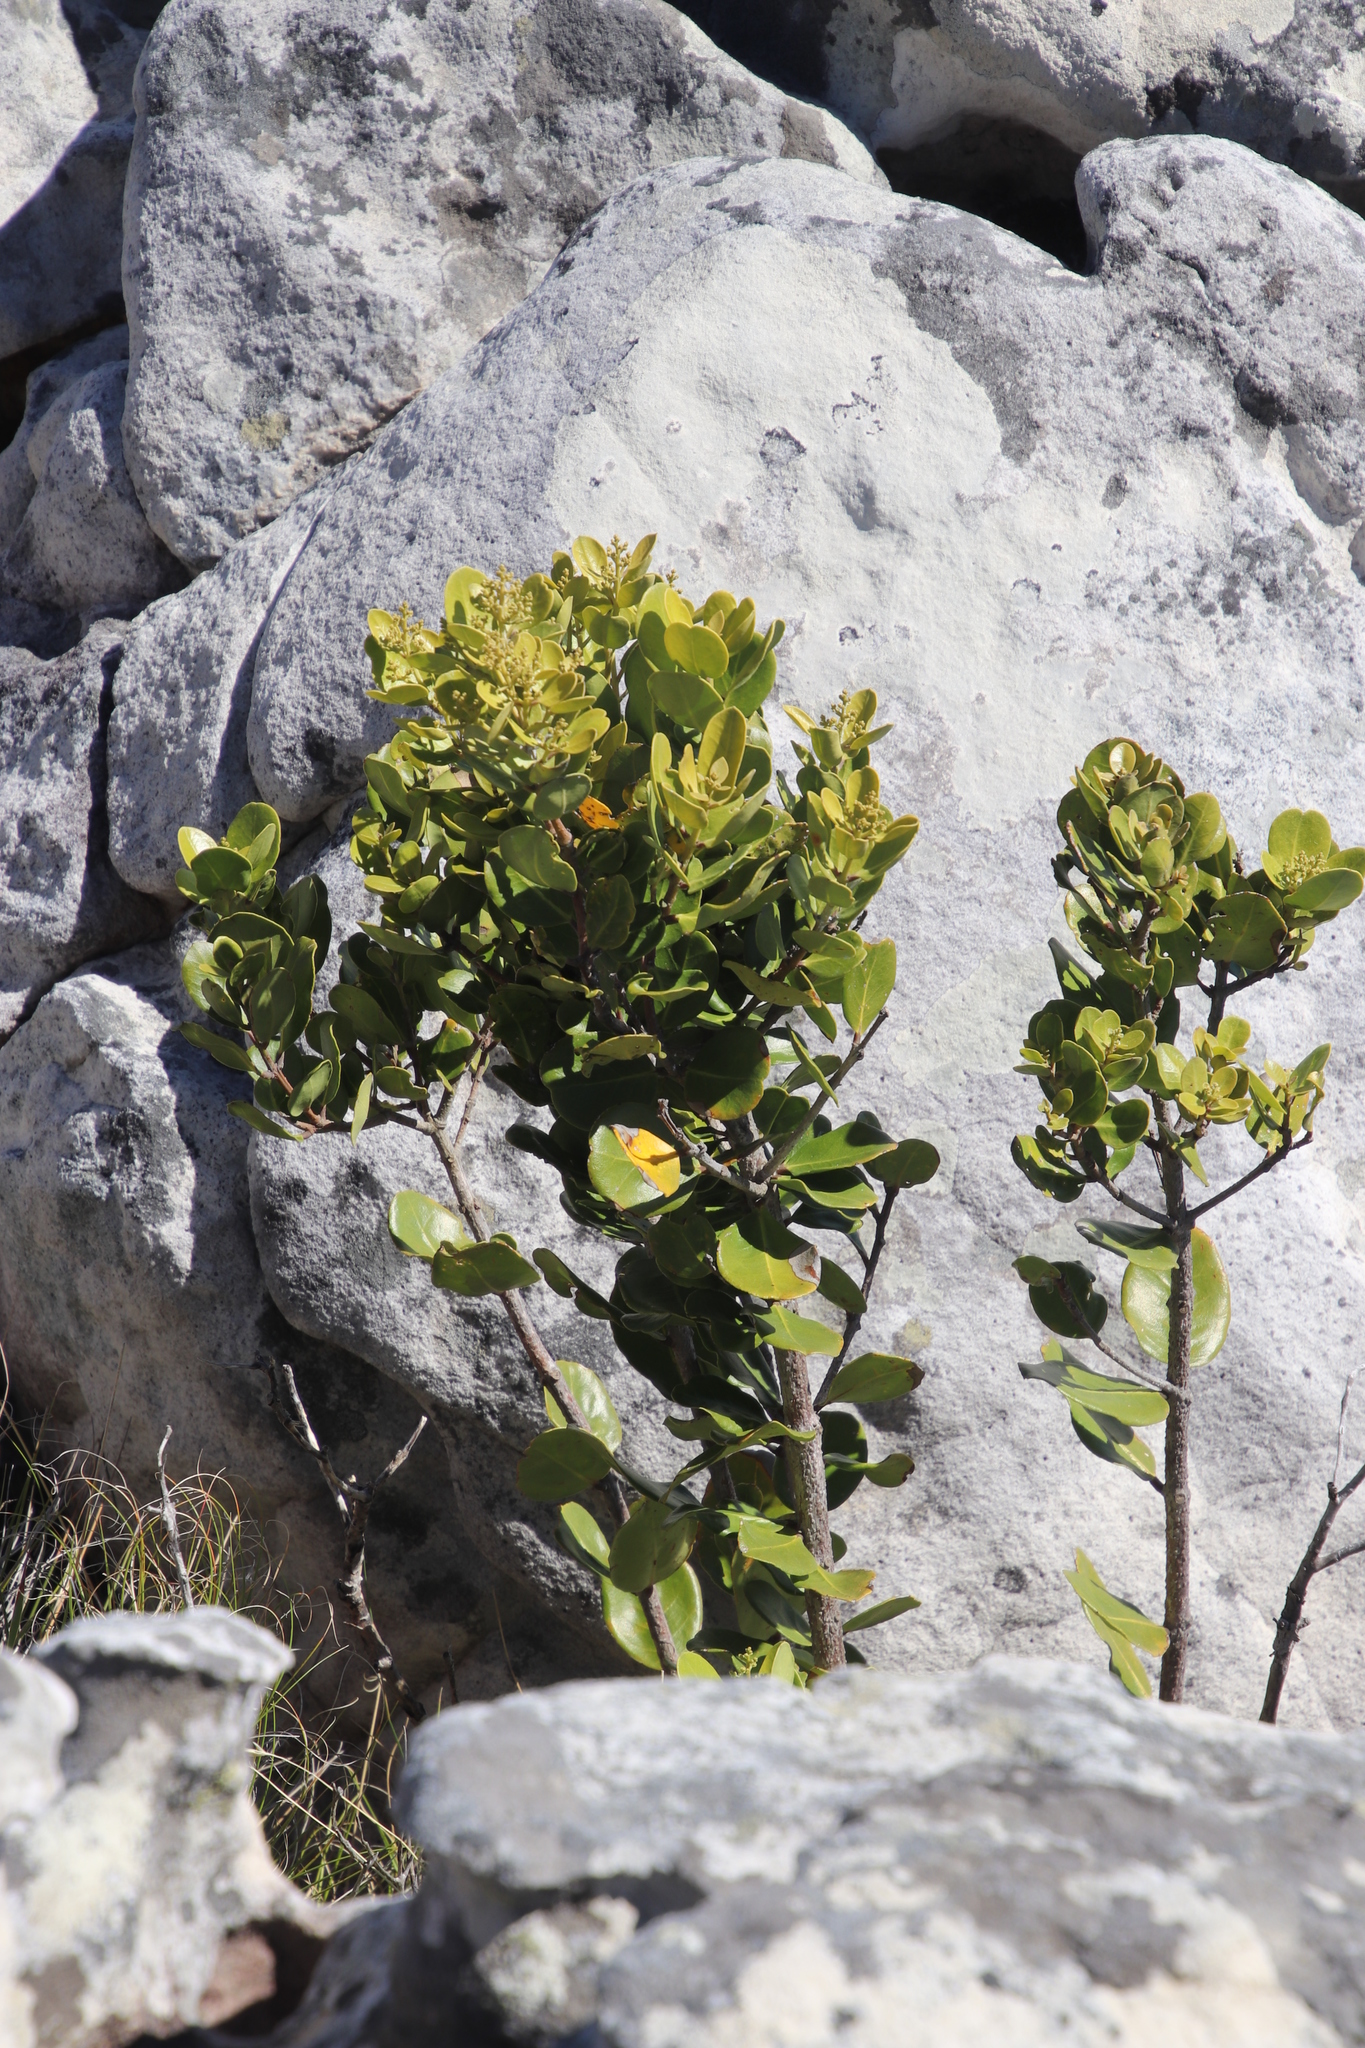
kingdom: Plantae
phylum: Tracheophyta
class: Magnoliopsida
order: Lamiales
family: Oleaceae
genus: Olea
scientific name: Olea capensis
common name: Black ironwood
